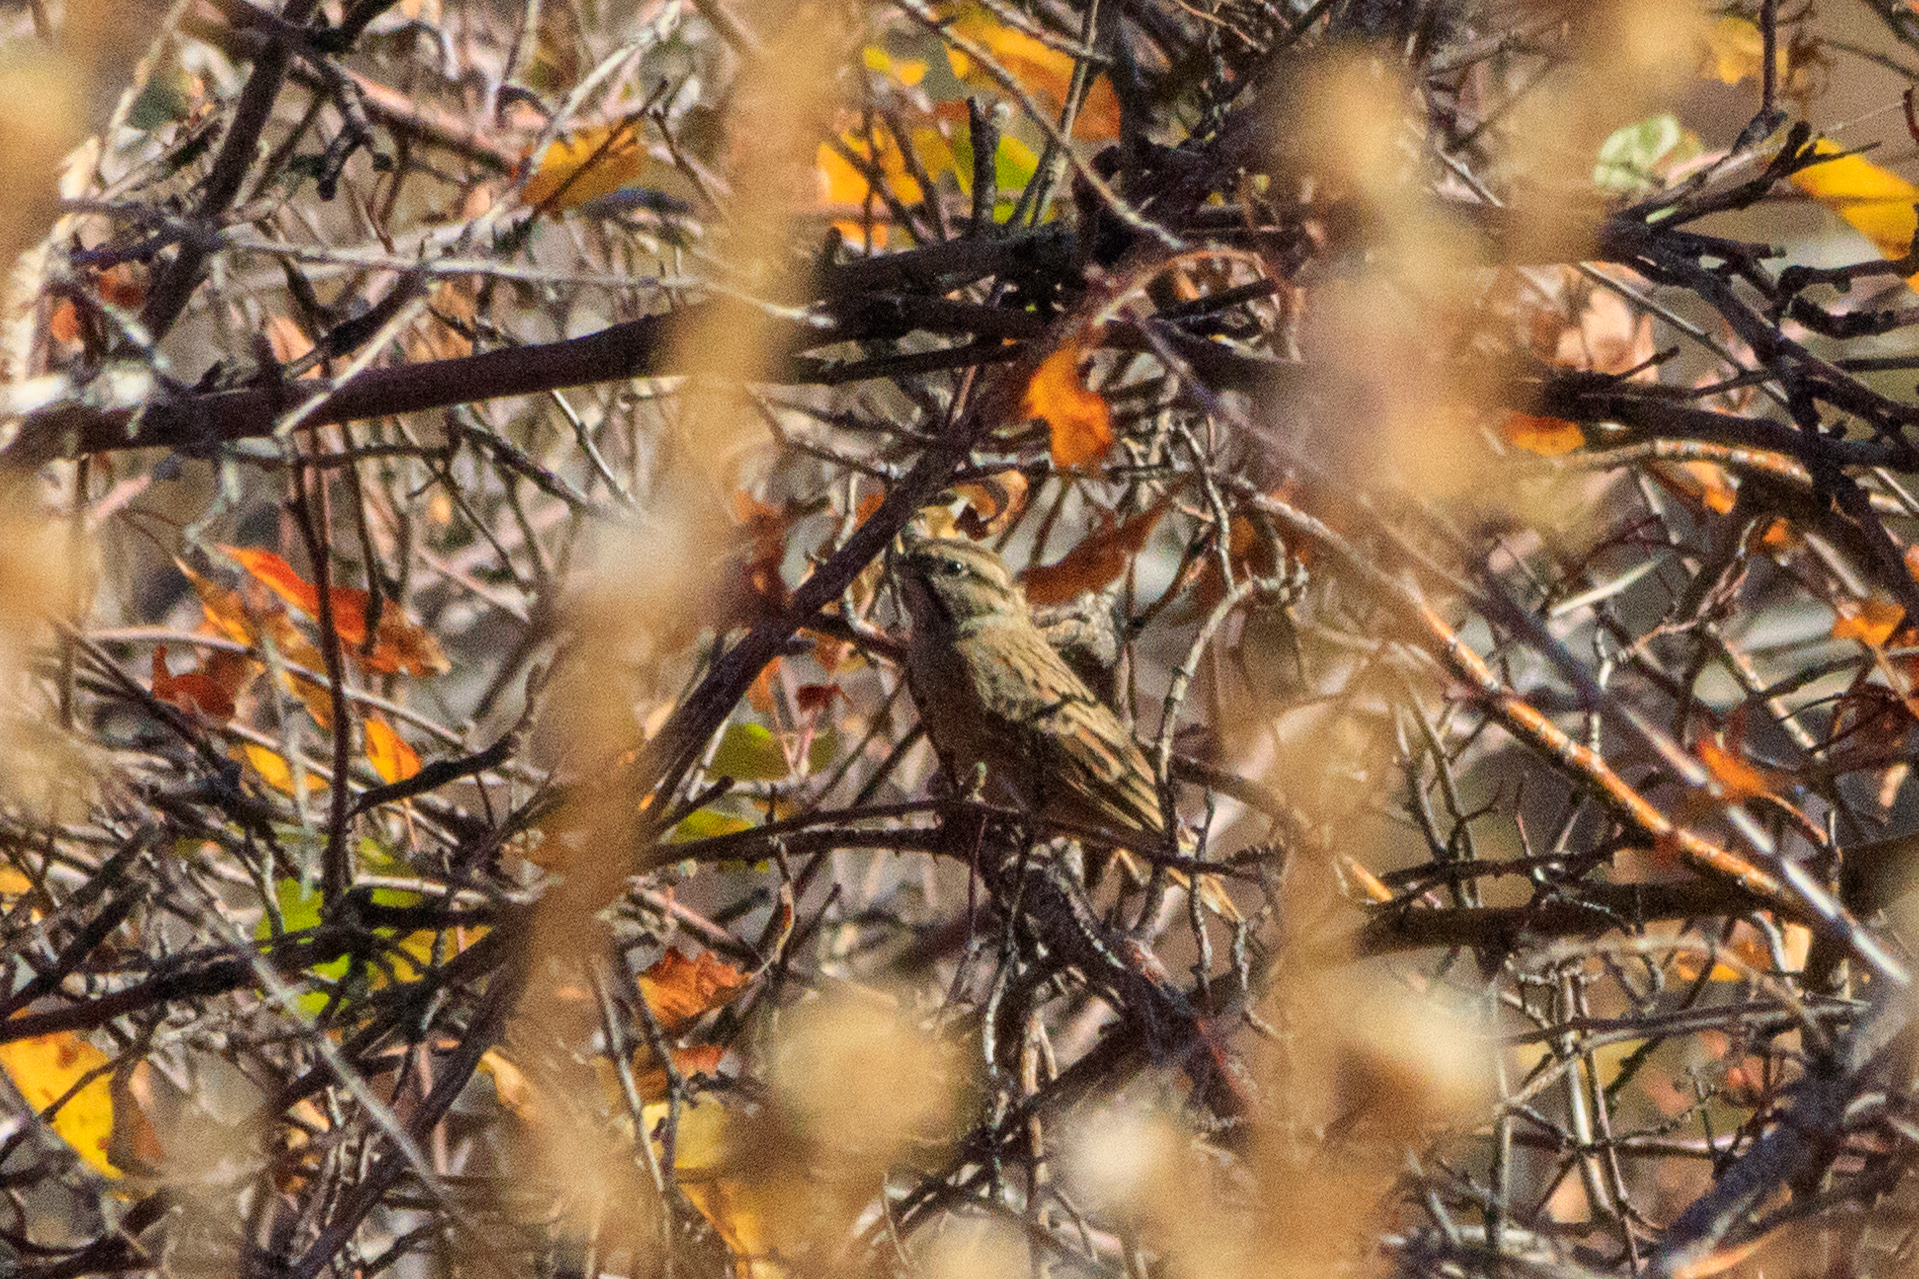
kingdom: Animalia
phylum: Chordata
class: Aves
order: Passeriformes
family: Emberizidae
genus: Emberiza
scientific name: Emberiza cia
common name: Rock bunting
